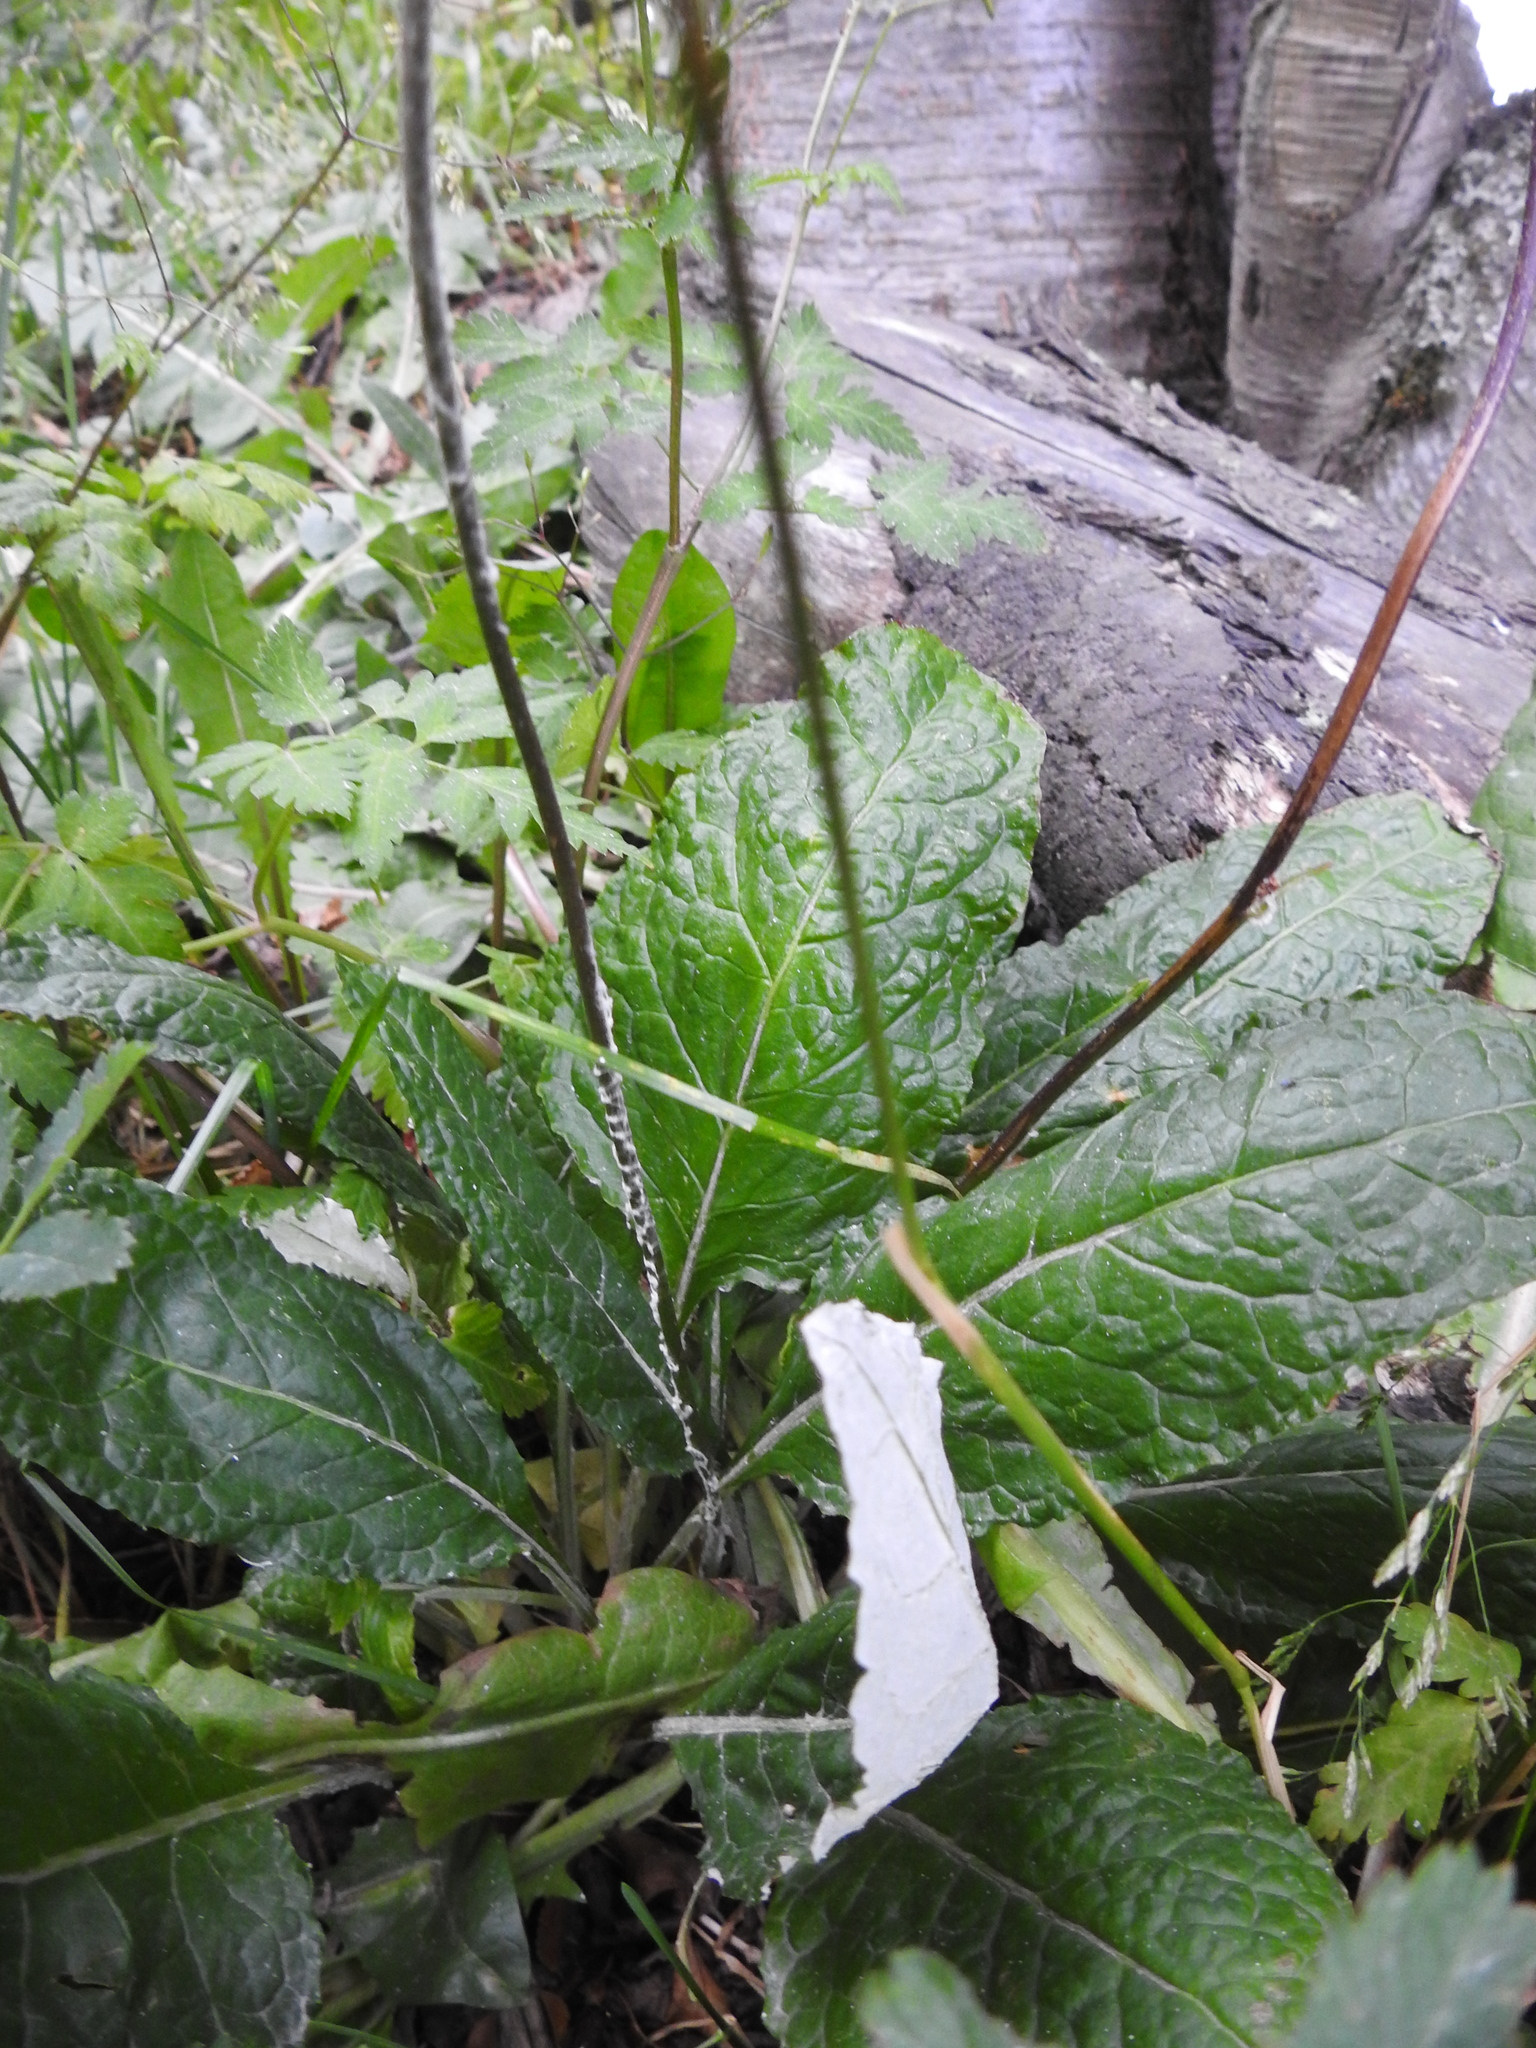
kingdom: Plantae
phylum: Tracheophyta
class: Magnoliopsida
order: Asterales
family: Asteraceae
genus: Adenocaulon
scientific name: Adenocaulon chilense
